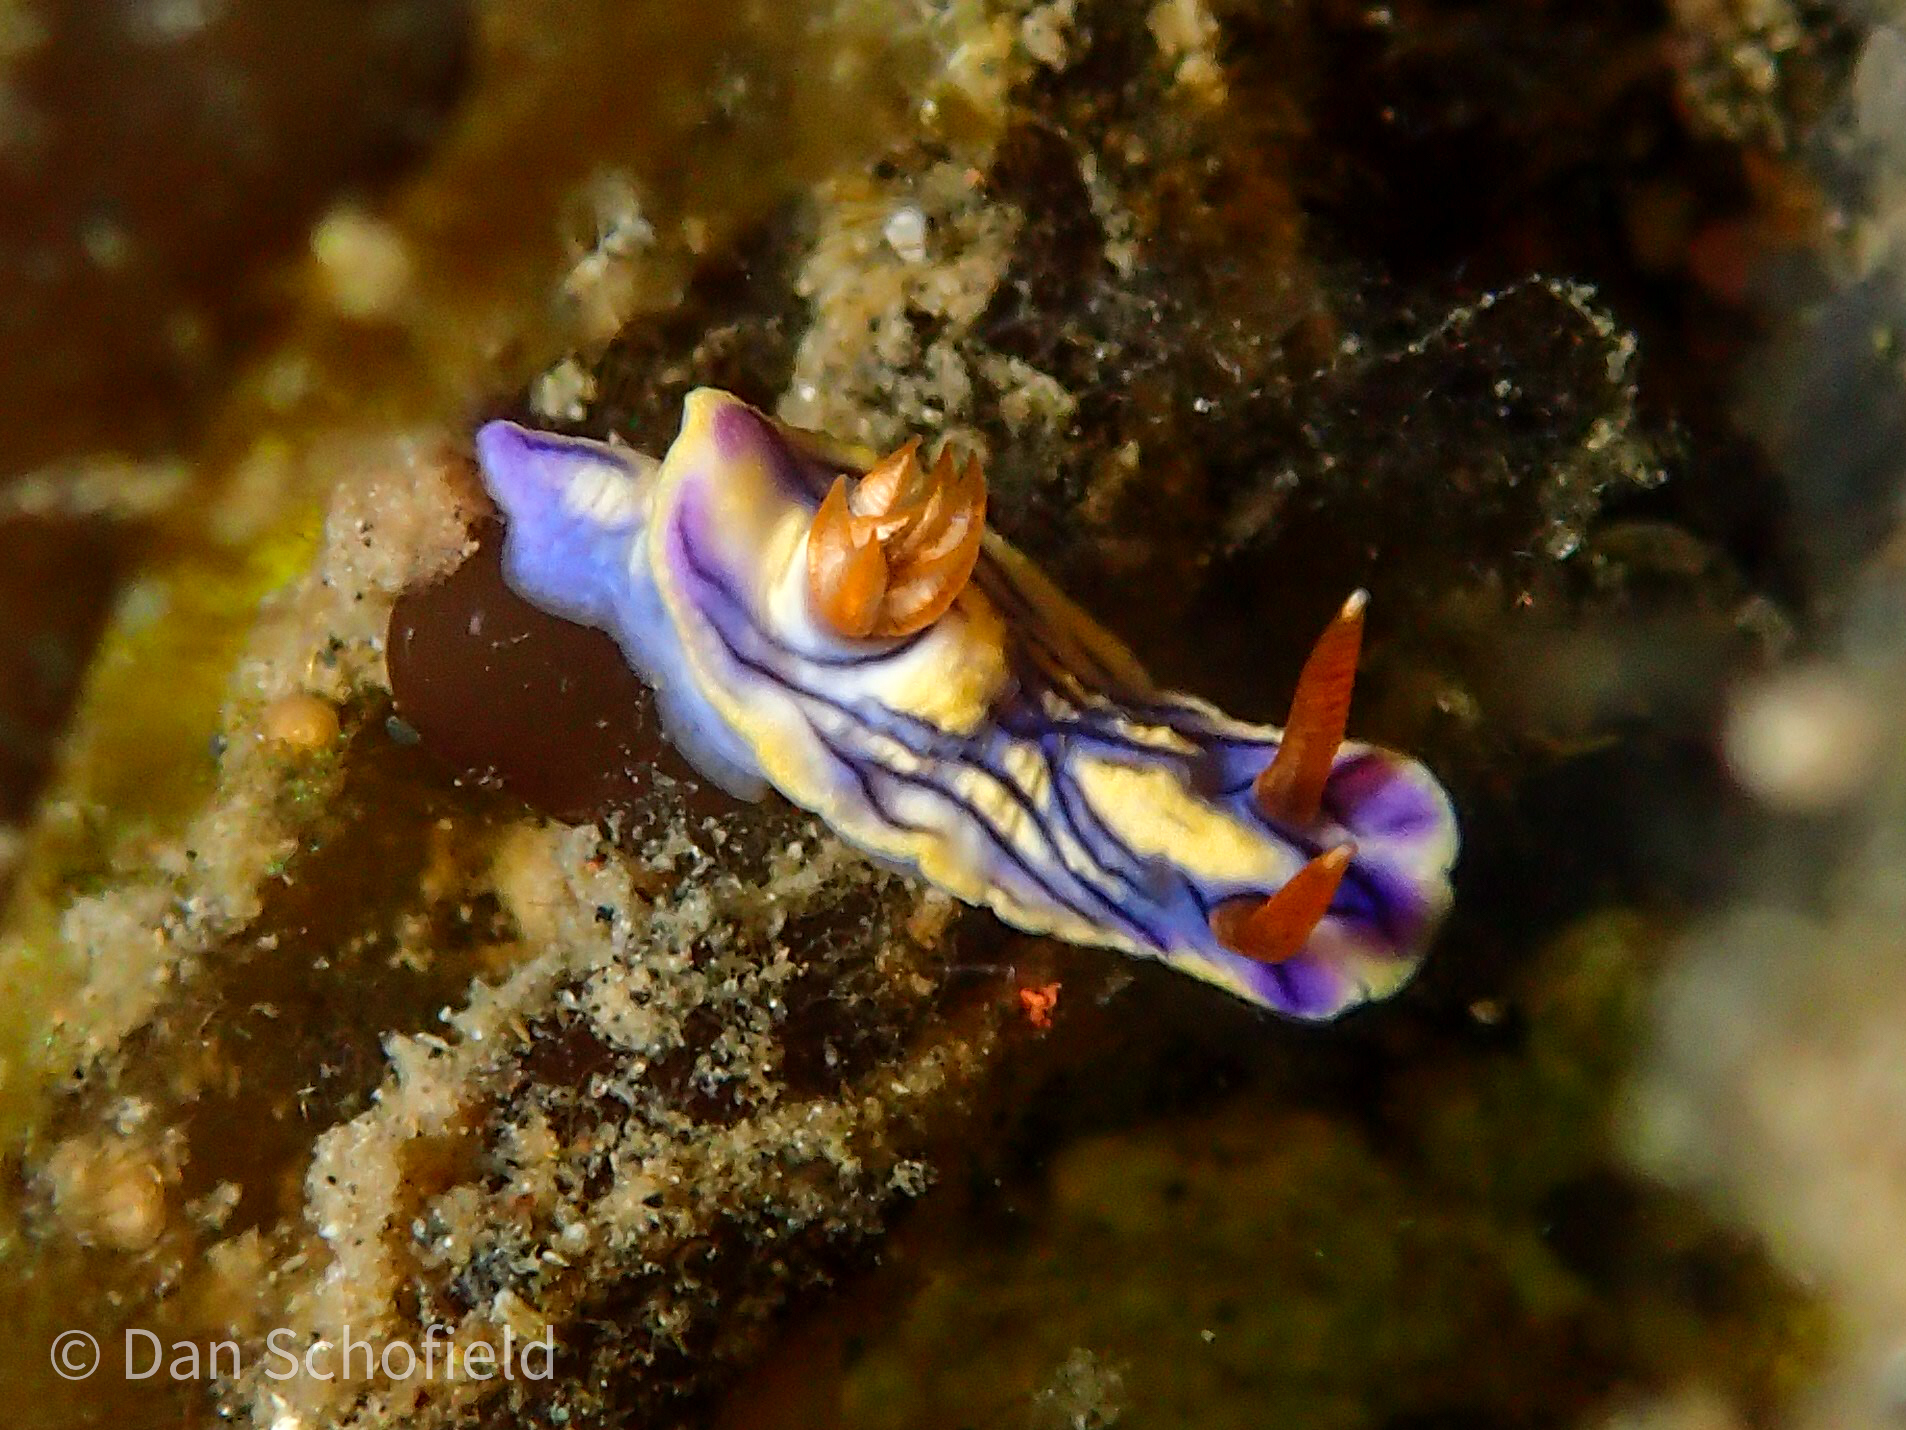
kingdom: Animalia
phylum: Mollusca
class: Gastropoda
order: Nudibranchia
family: Chromodorididae
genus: Hypselodoris
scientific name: Hypselodoris zephyra
